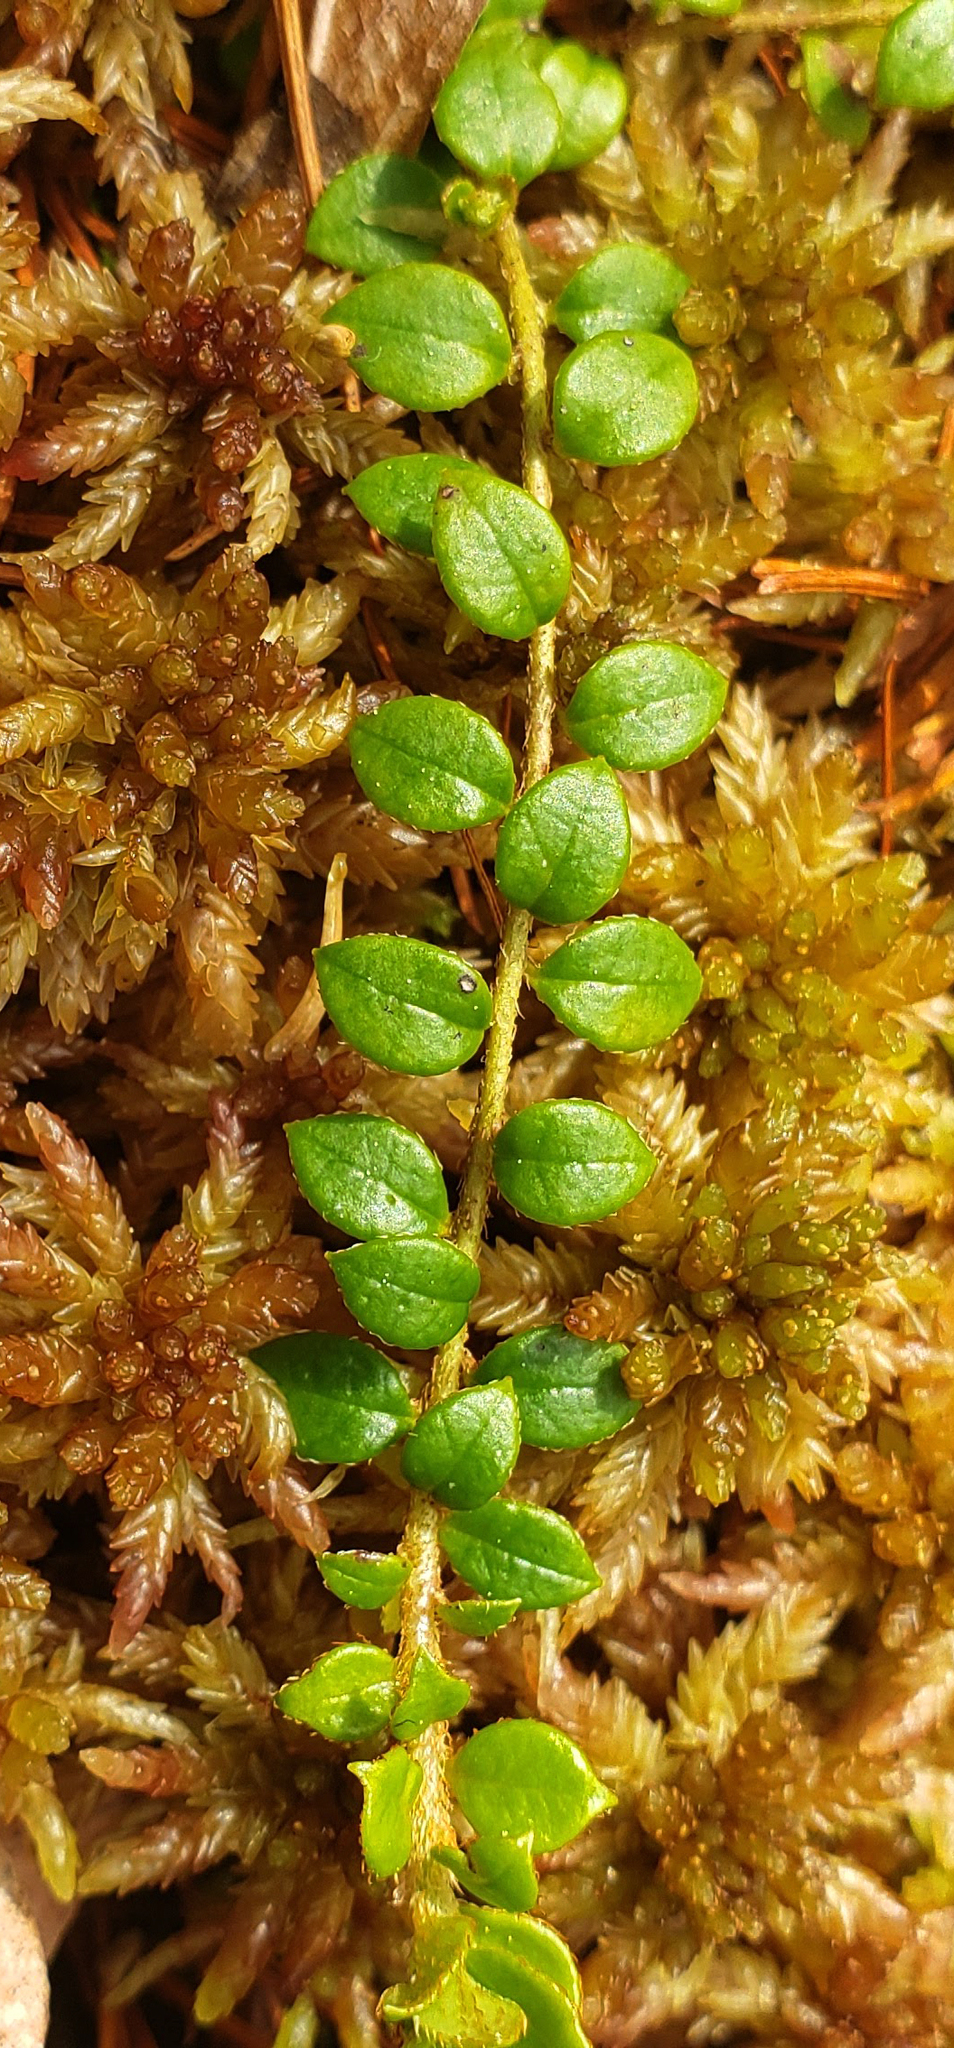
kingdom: Plantae
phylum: Tracheophyta
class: Magnoliopsida
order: Ericales
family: Ericaceae
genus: Gaultheria
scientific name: Gaultheria hispidula
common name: Cancer wintergreen
